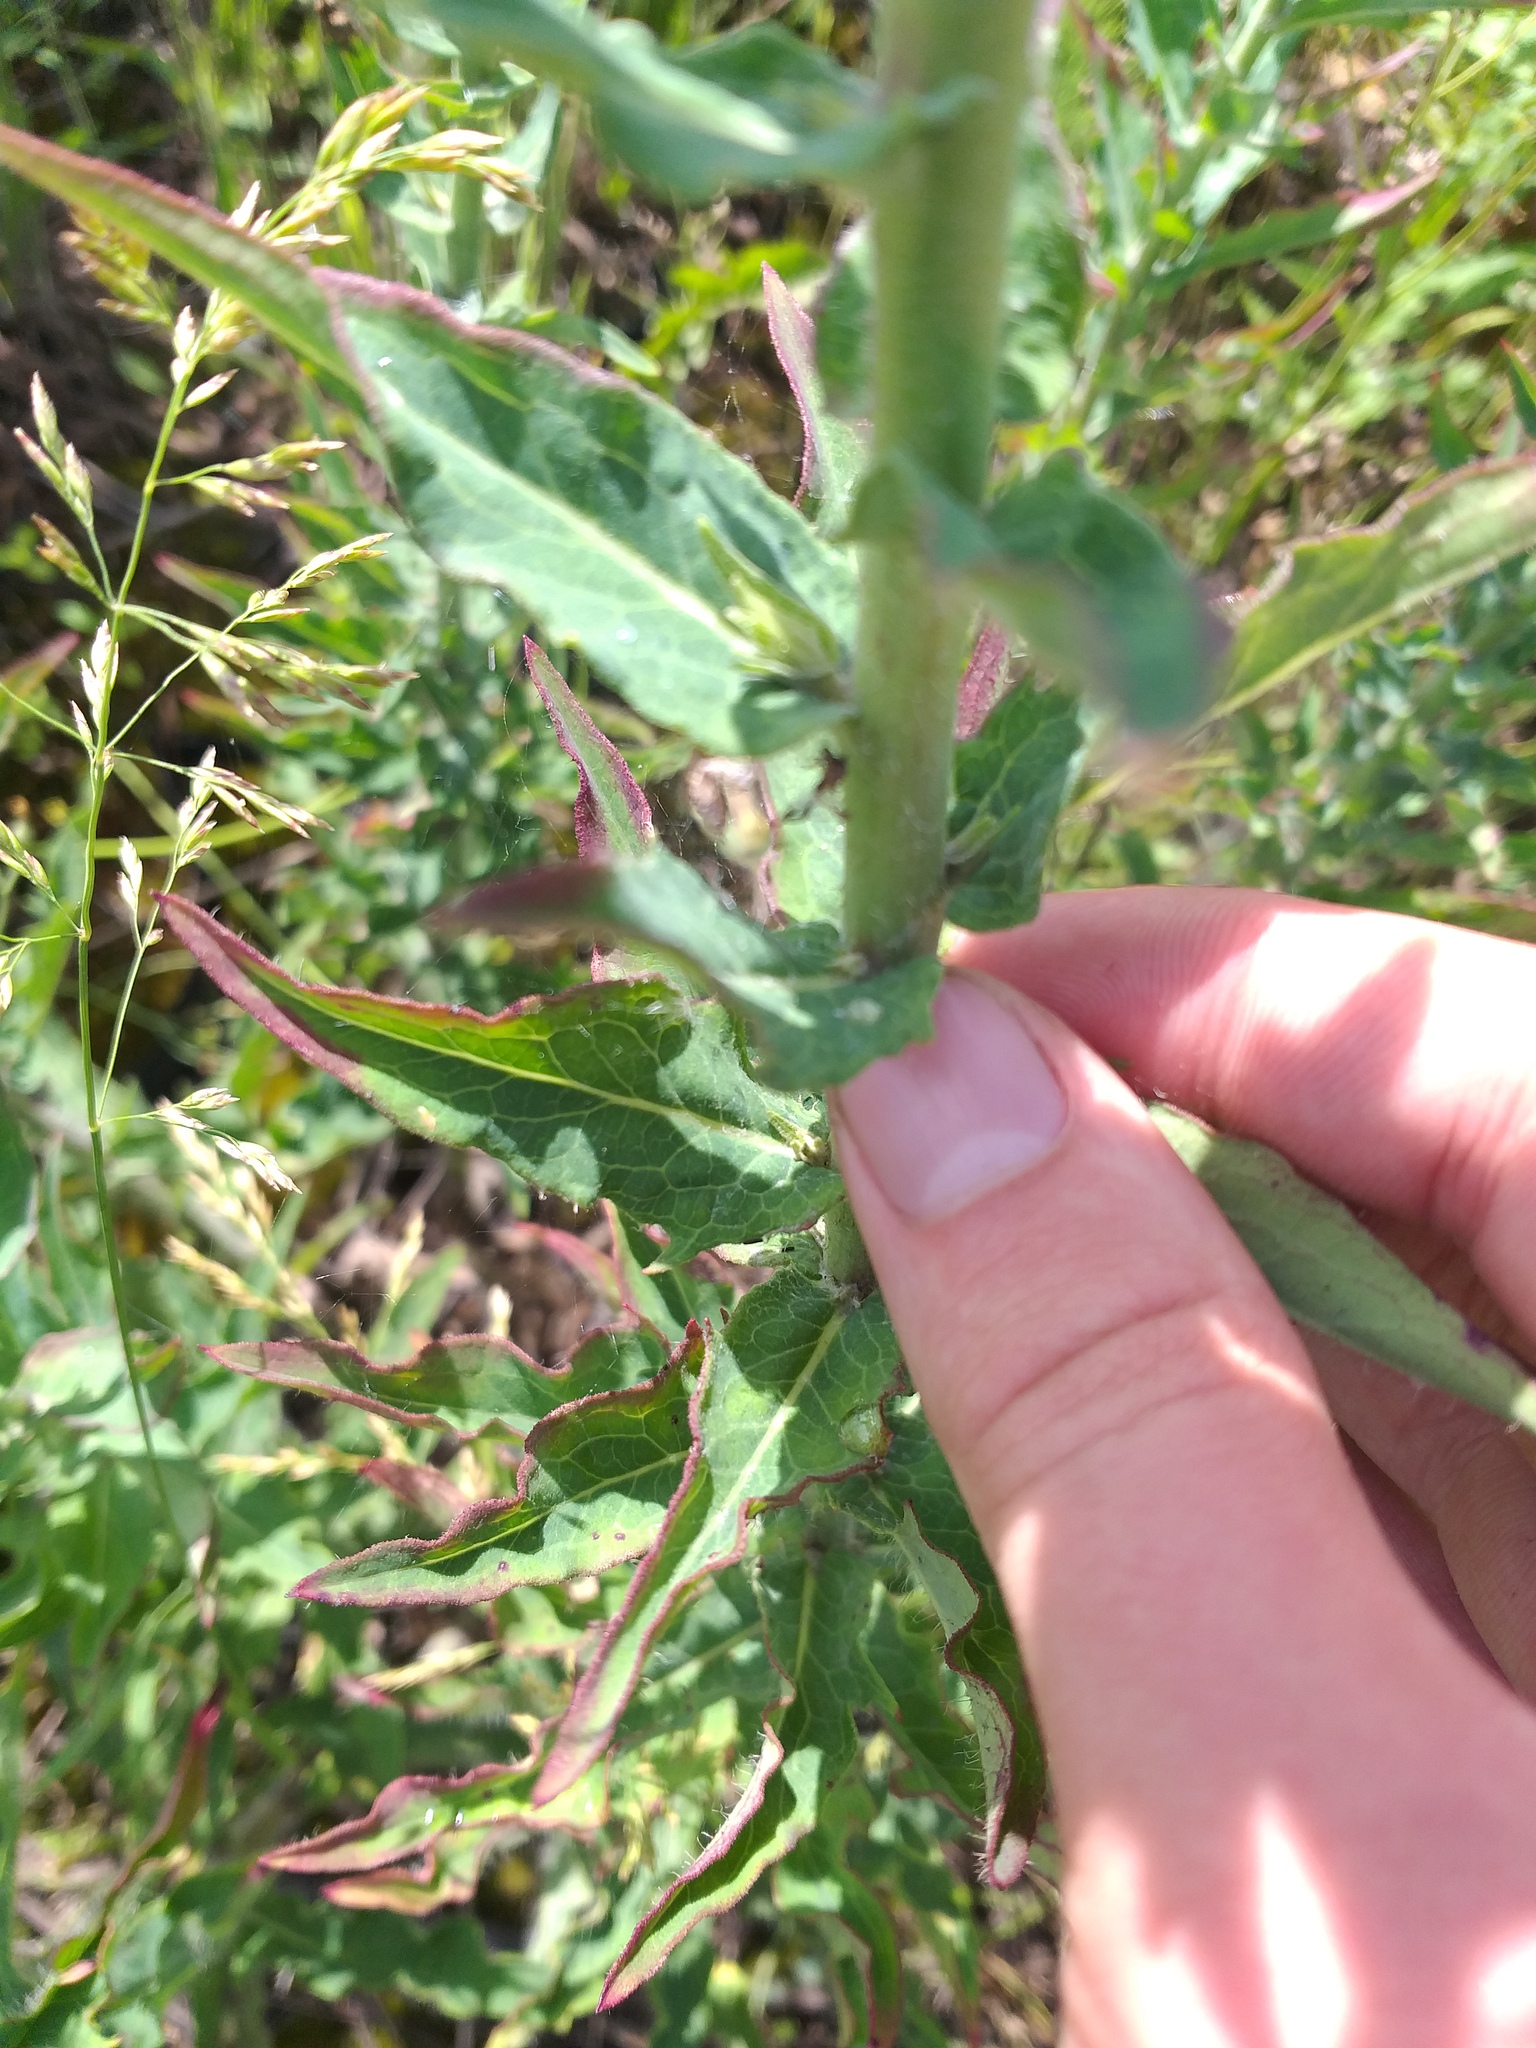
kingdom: Plantae
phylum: Tracheophyta
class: Magnoliopsida
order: Asterales
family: Asteraceae
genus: Hieracium
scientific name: Hieracium virosum
